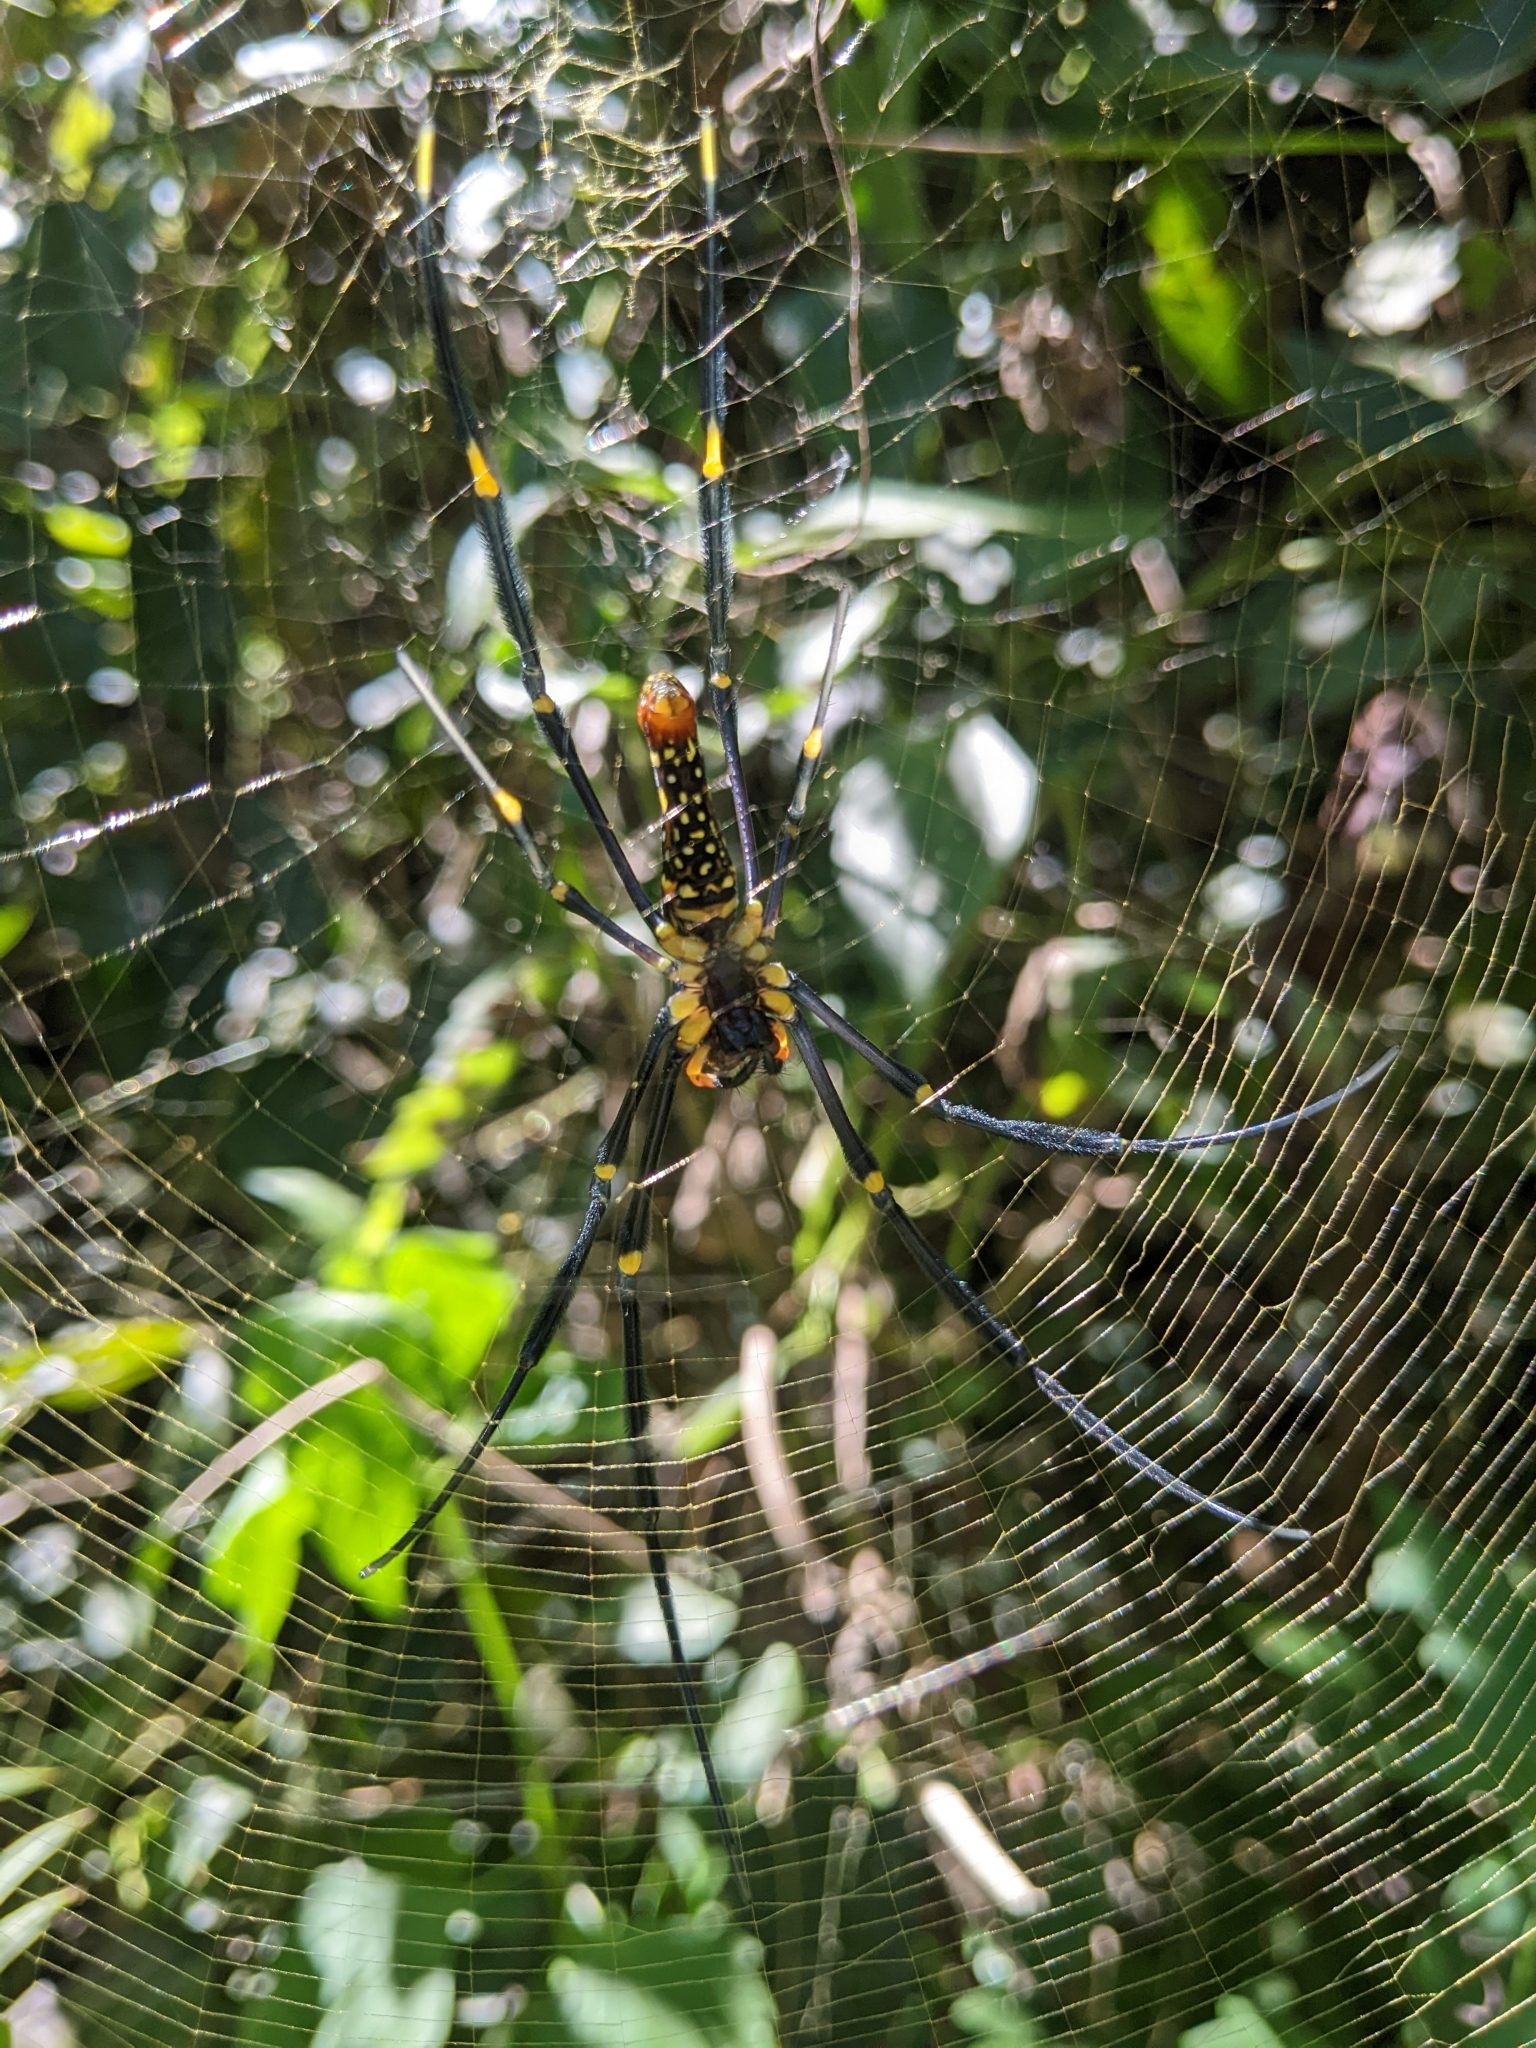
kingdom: Animalia
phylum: Arthropoda
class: Arachnida
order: Araneae
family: Araneidae
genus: Nephila
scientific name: Nephila pilipes
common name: Giant golden orb weaver
